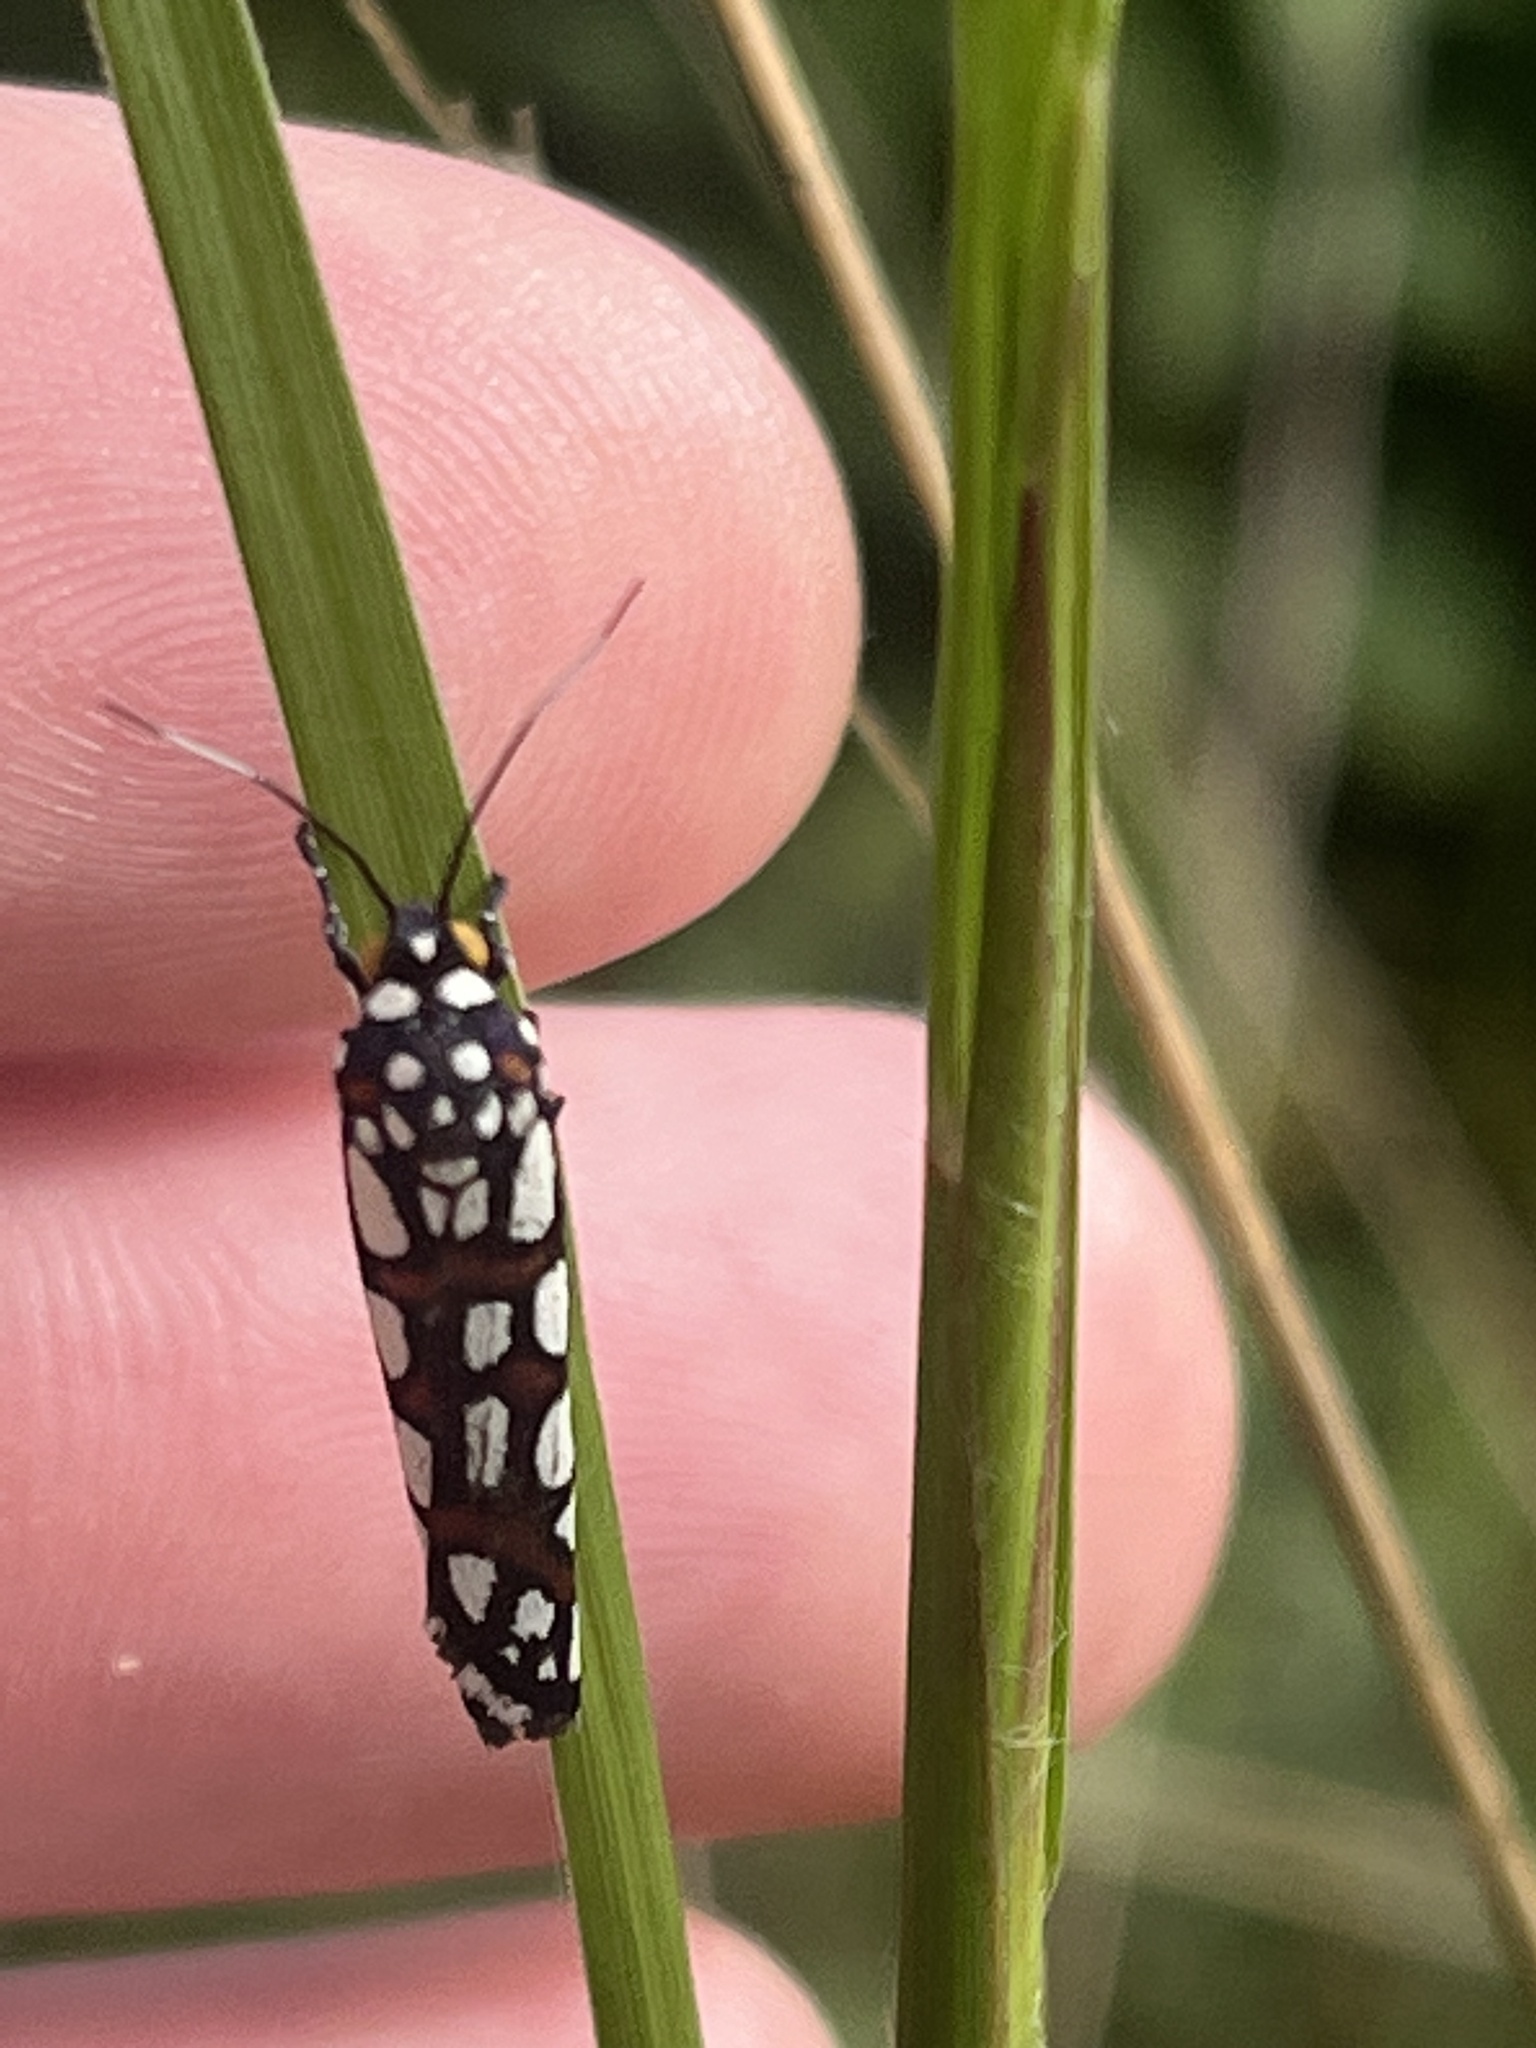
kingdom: Animalia
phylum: Arthropoda
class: Insecta
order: Lepidoptera
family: Noctuidae
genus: Cydosia
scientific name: Cydosia nobilitella
